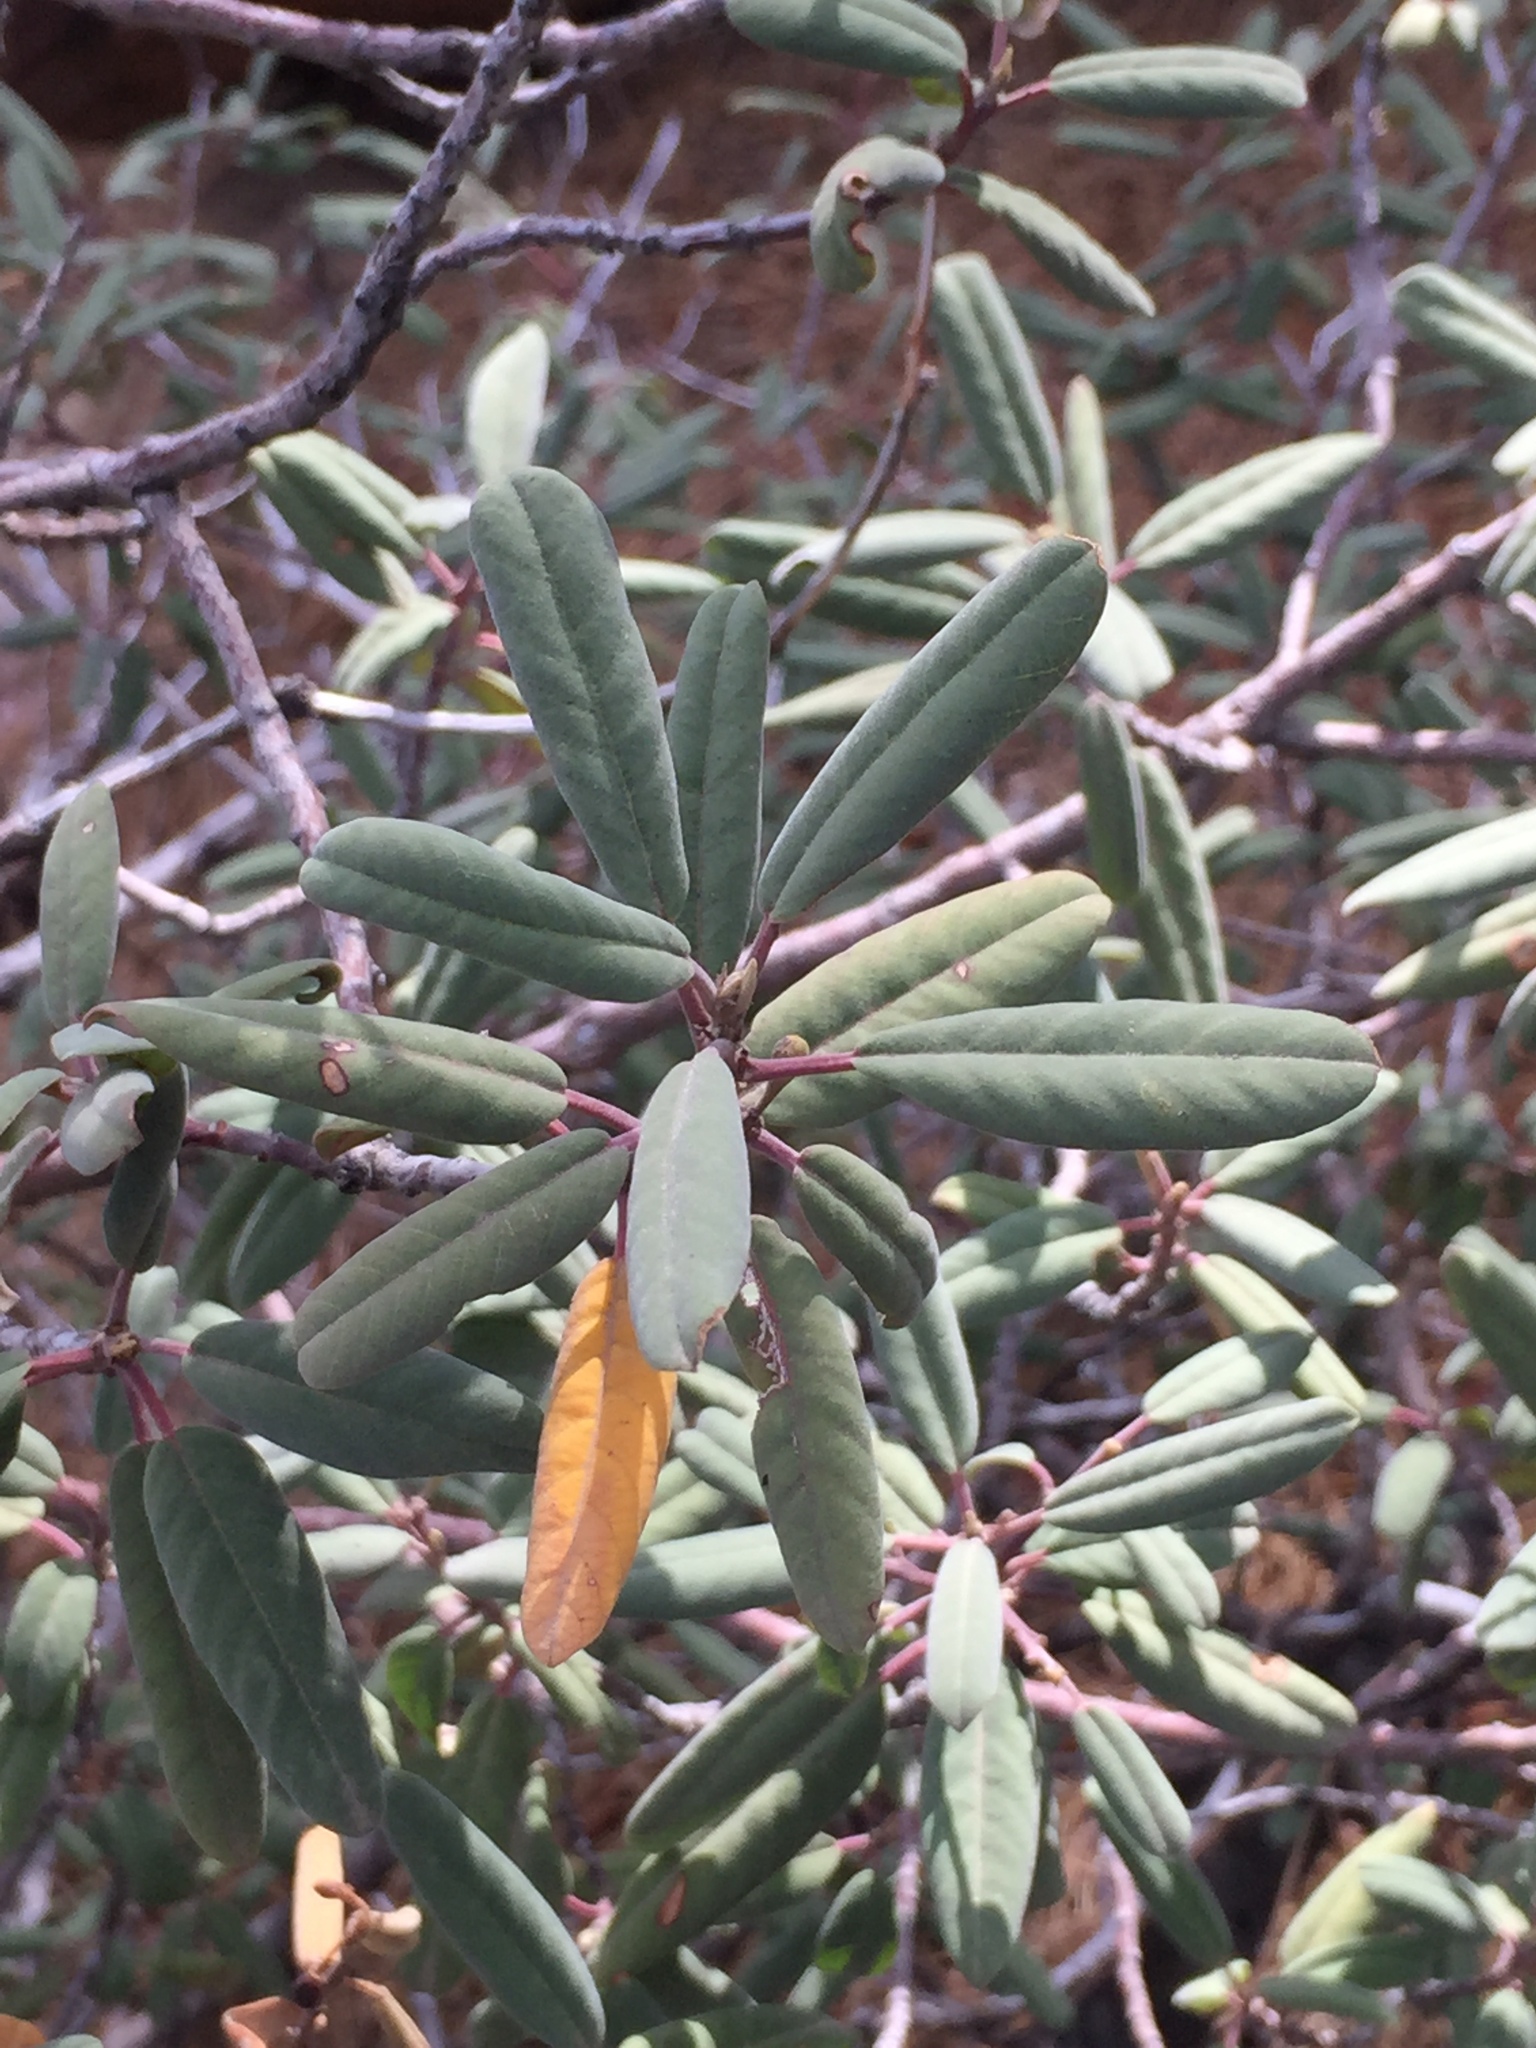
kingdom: Plantae
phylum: Tracheophyta
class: Magnoliopsida
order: Rosales
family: Rhamnaceae
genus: Frangula
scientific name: Frangula californica
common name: California buckthorn
